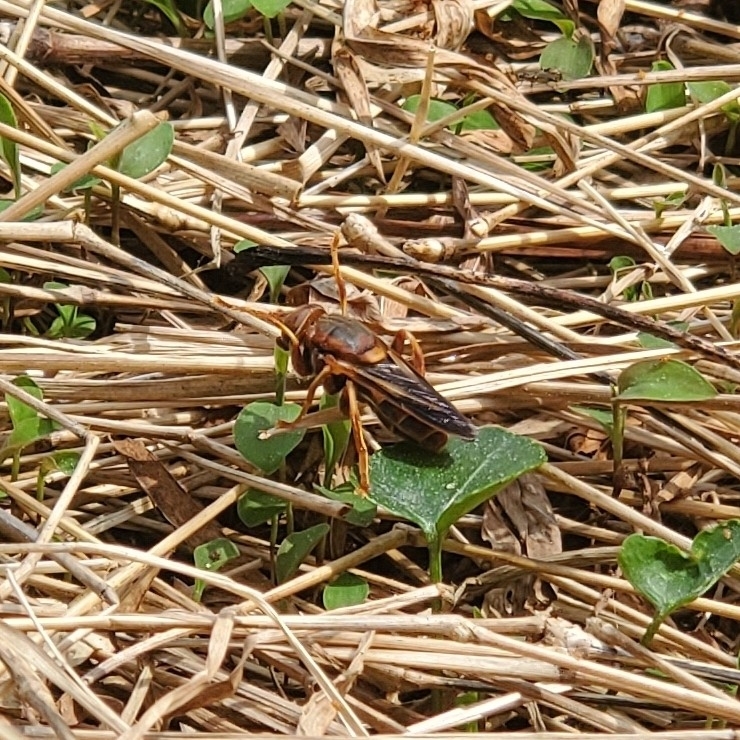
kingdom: Animalia
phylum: Arthropoda
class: Insecta
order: Diptera
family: Syrphidae
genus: Teuchocnemis
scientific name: Teuchocnemis bacuntius
